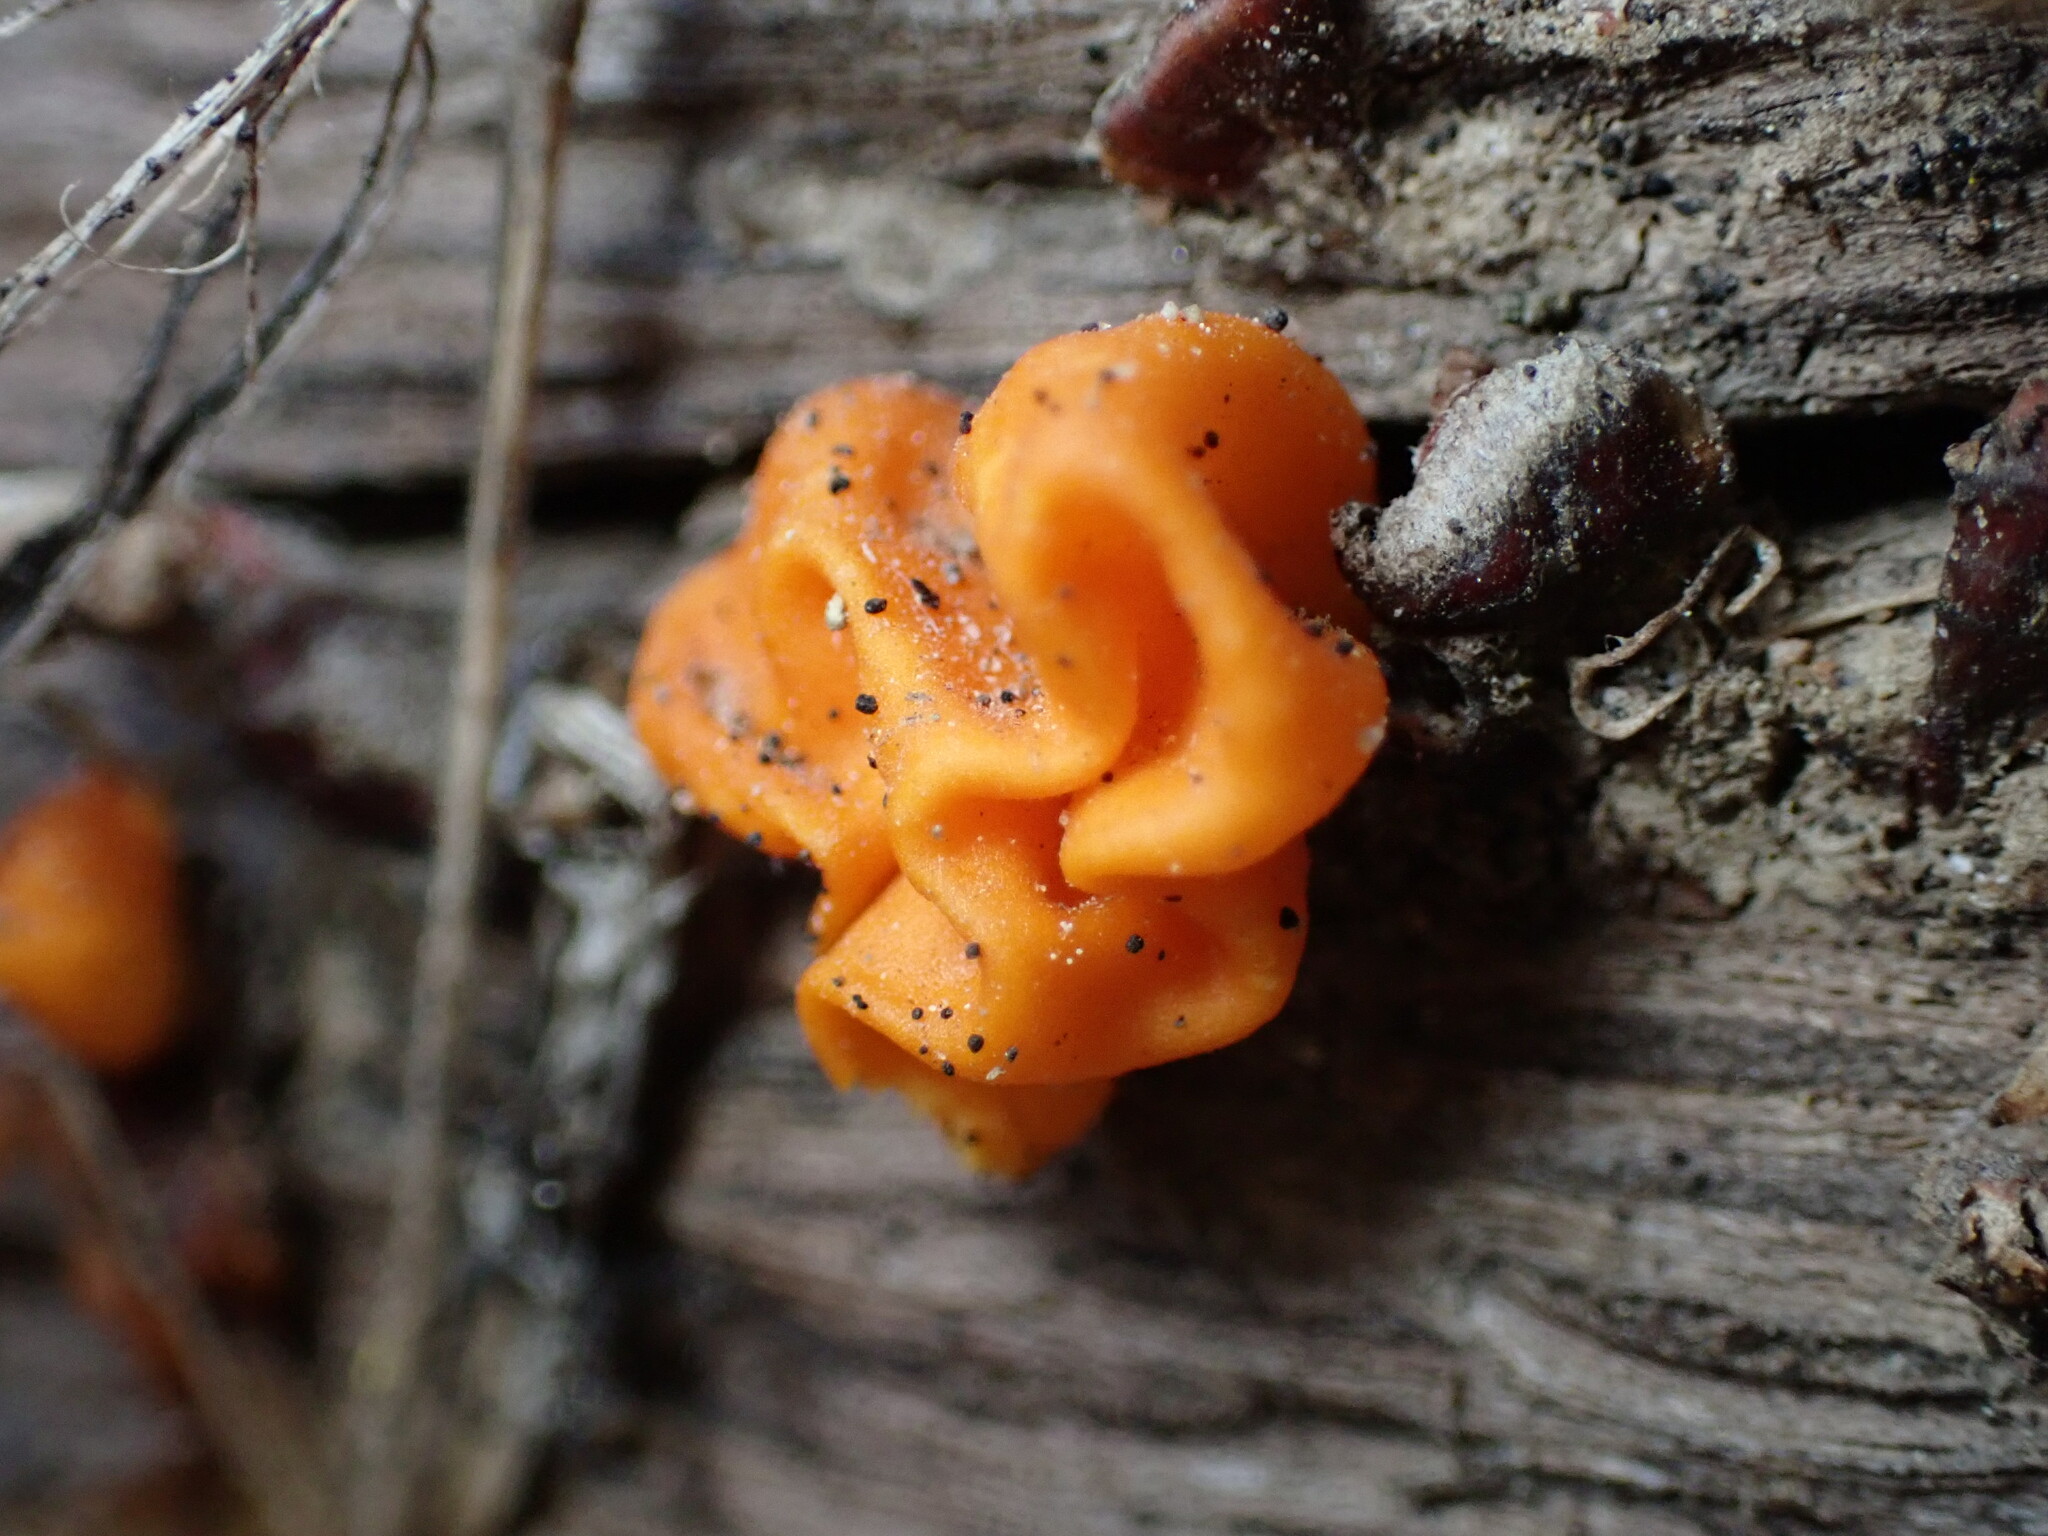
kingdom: Fungi
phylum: Basidiomycota
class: Tremellomycetes
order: Tremellales
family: Naemateliaceae
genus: Naematelia
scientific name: Naematelia aurantia
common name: Golden ear
